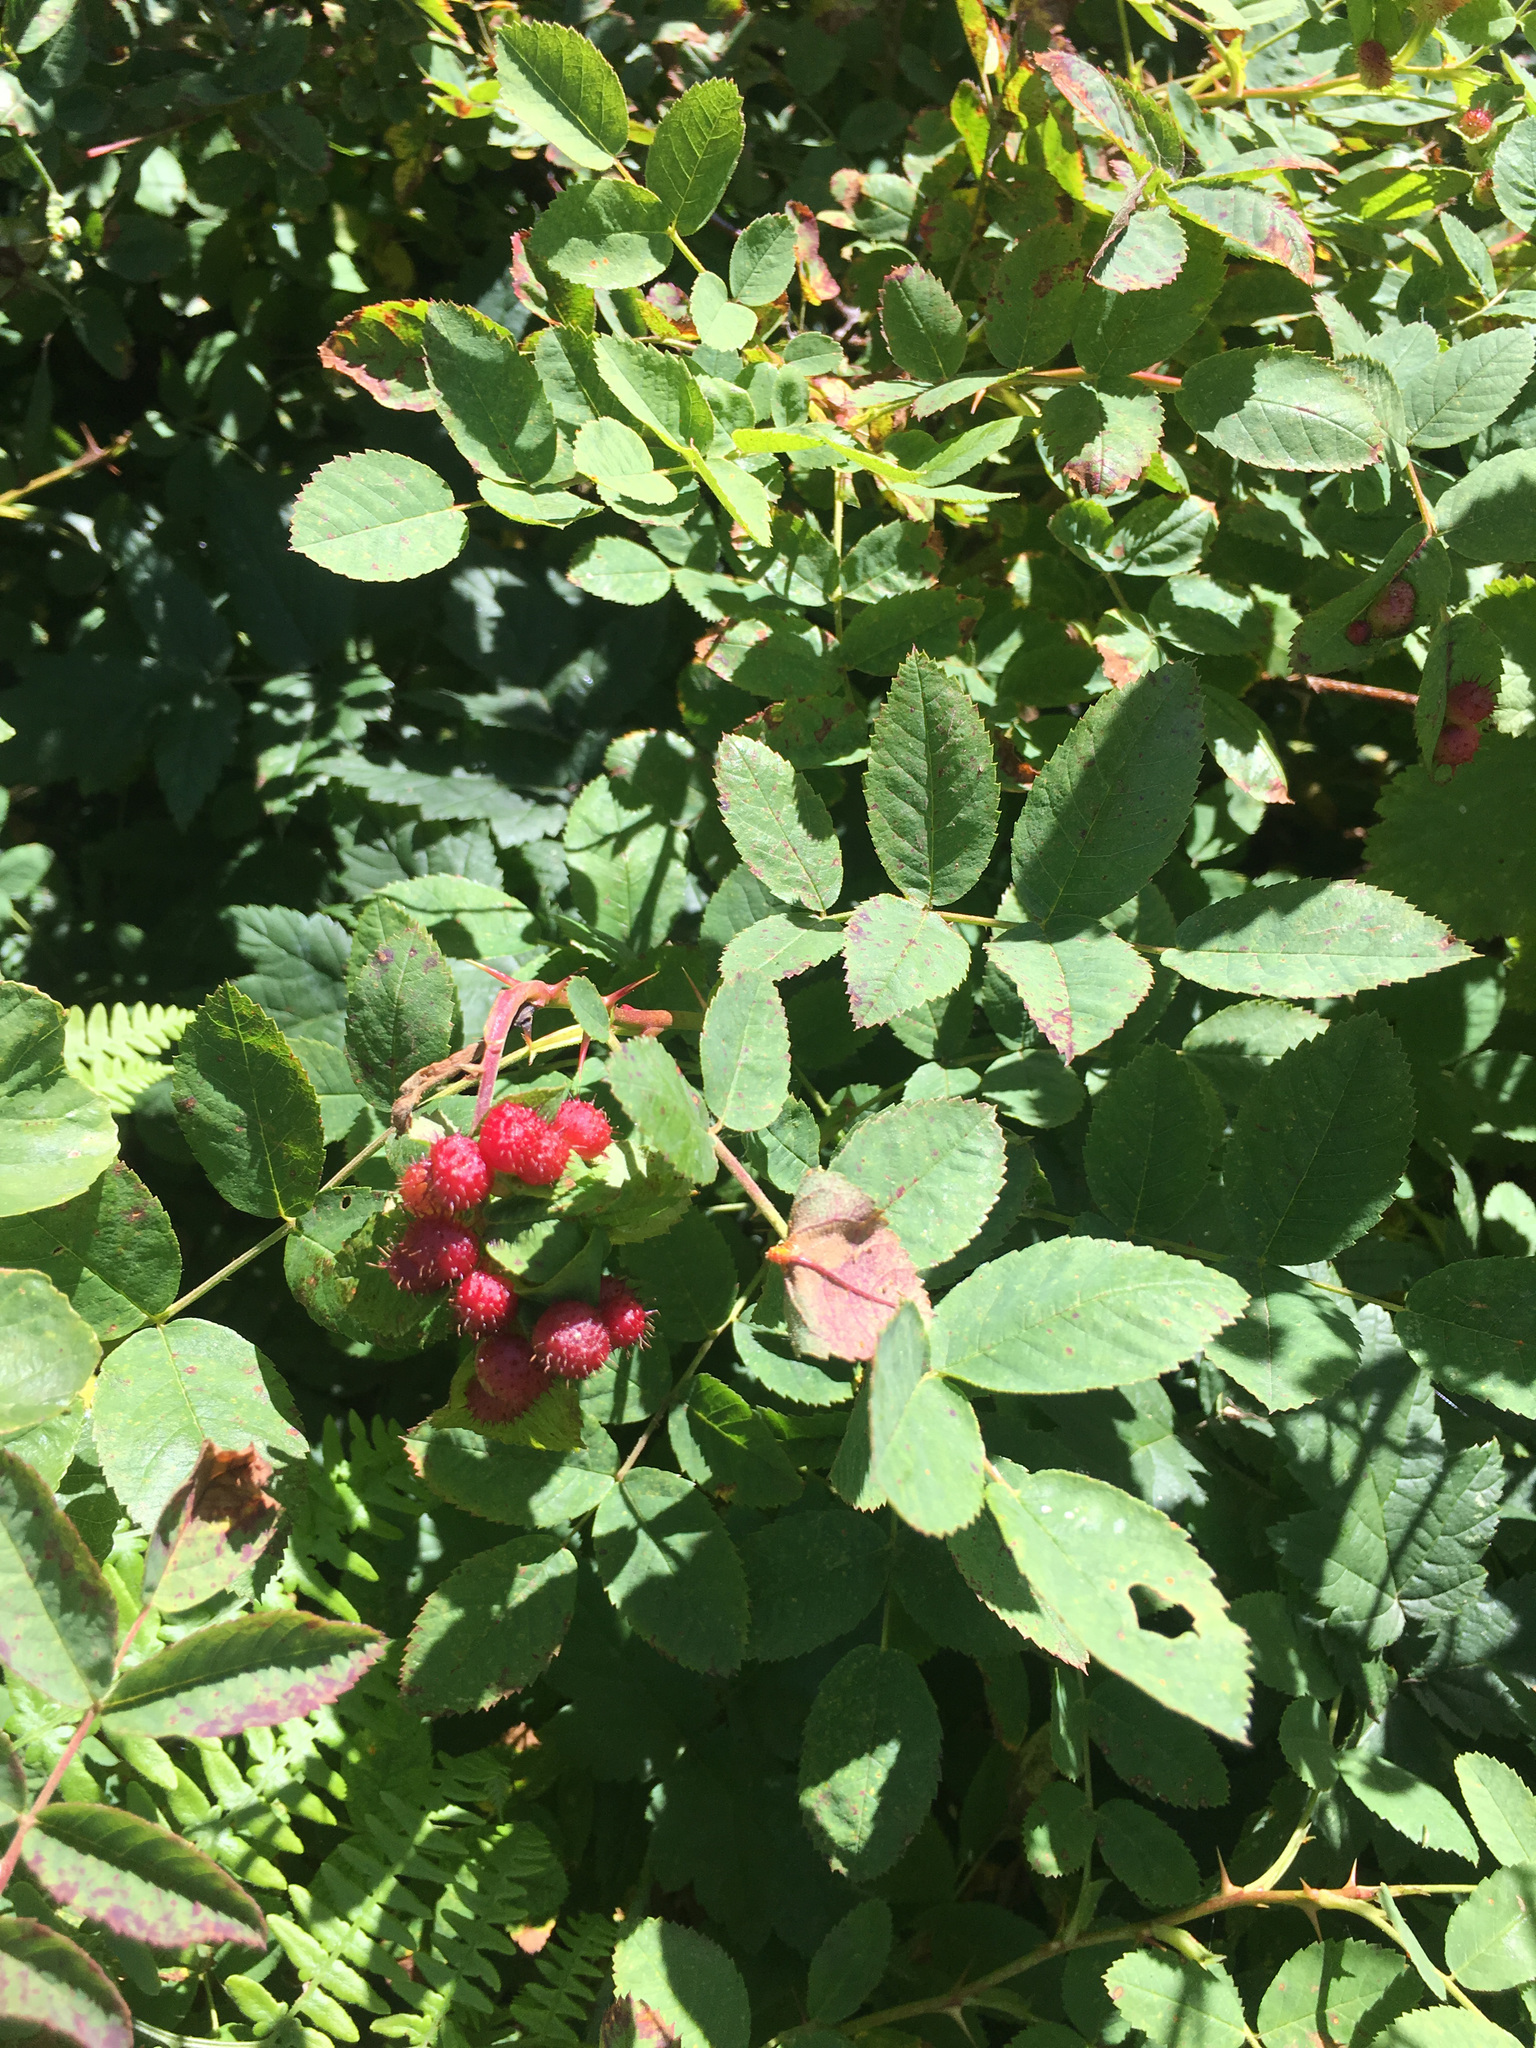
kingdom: Animalia
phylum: Arthropoda
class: Insecta
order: Hymenoptera
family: Cynipidae
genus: Diplolepis
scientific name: Diplolepis polita
